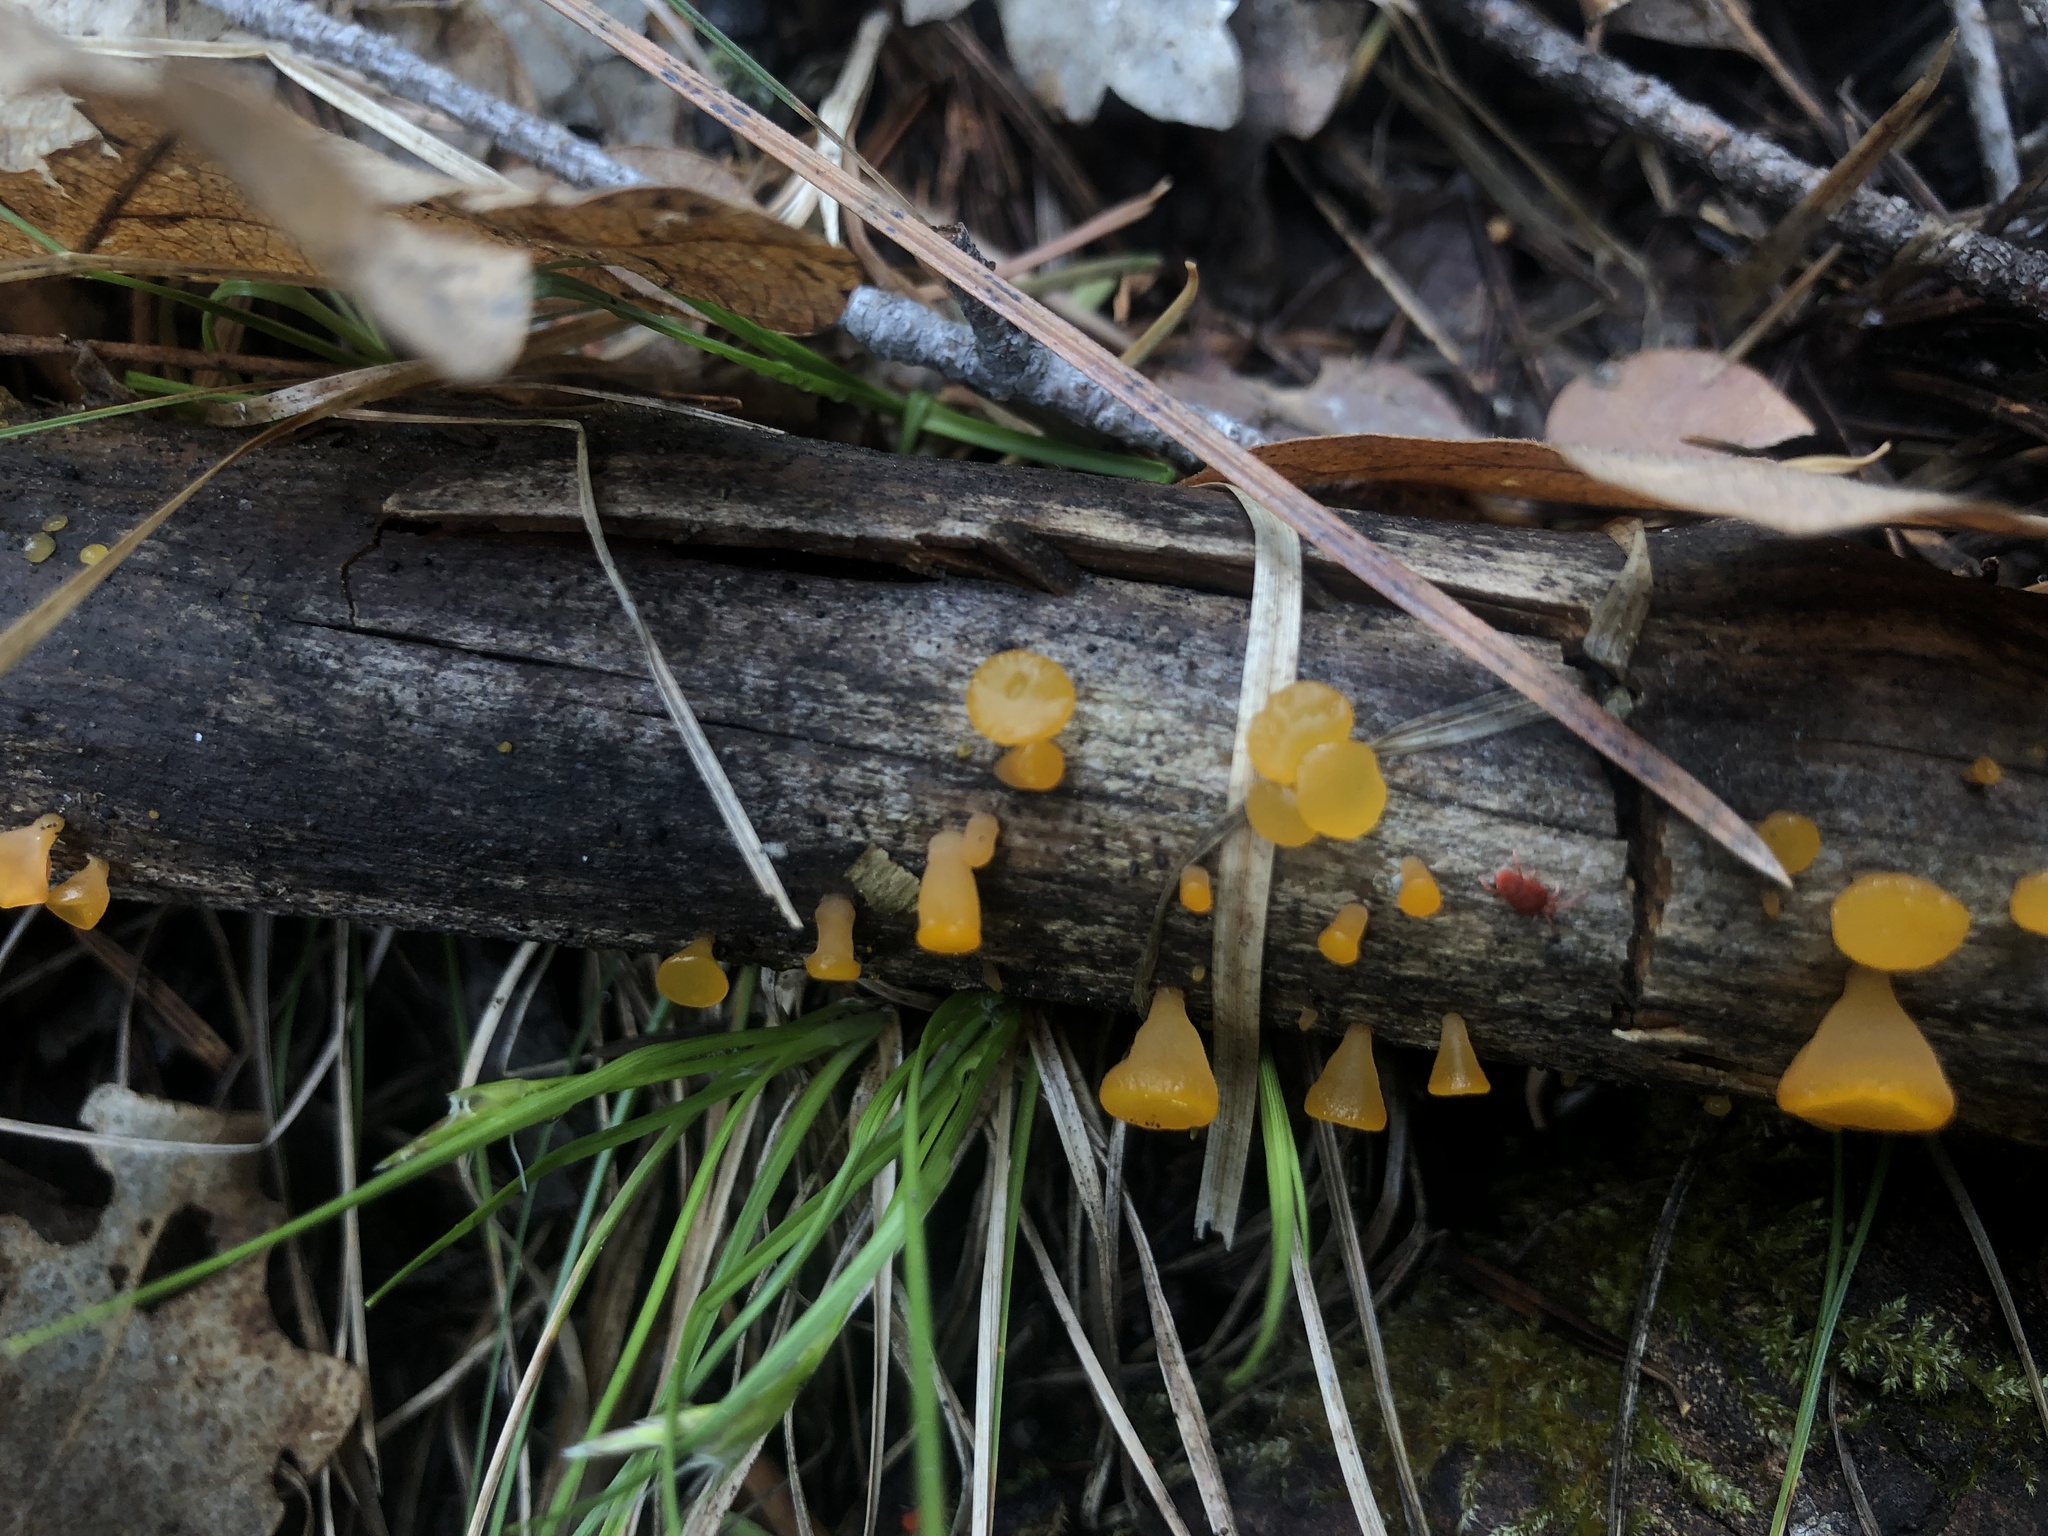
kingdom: Fungi
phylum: Basidiomycota
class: Dacrymycetes
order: Dacrymycetales
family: Dacrymycetaceae
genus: Dacrymyces
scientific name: Dacrymyces minutus
